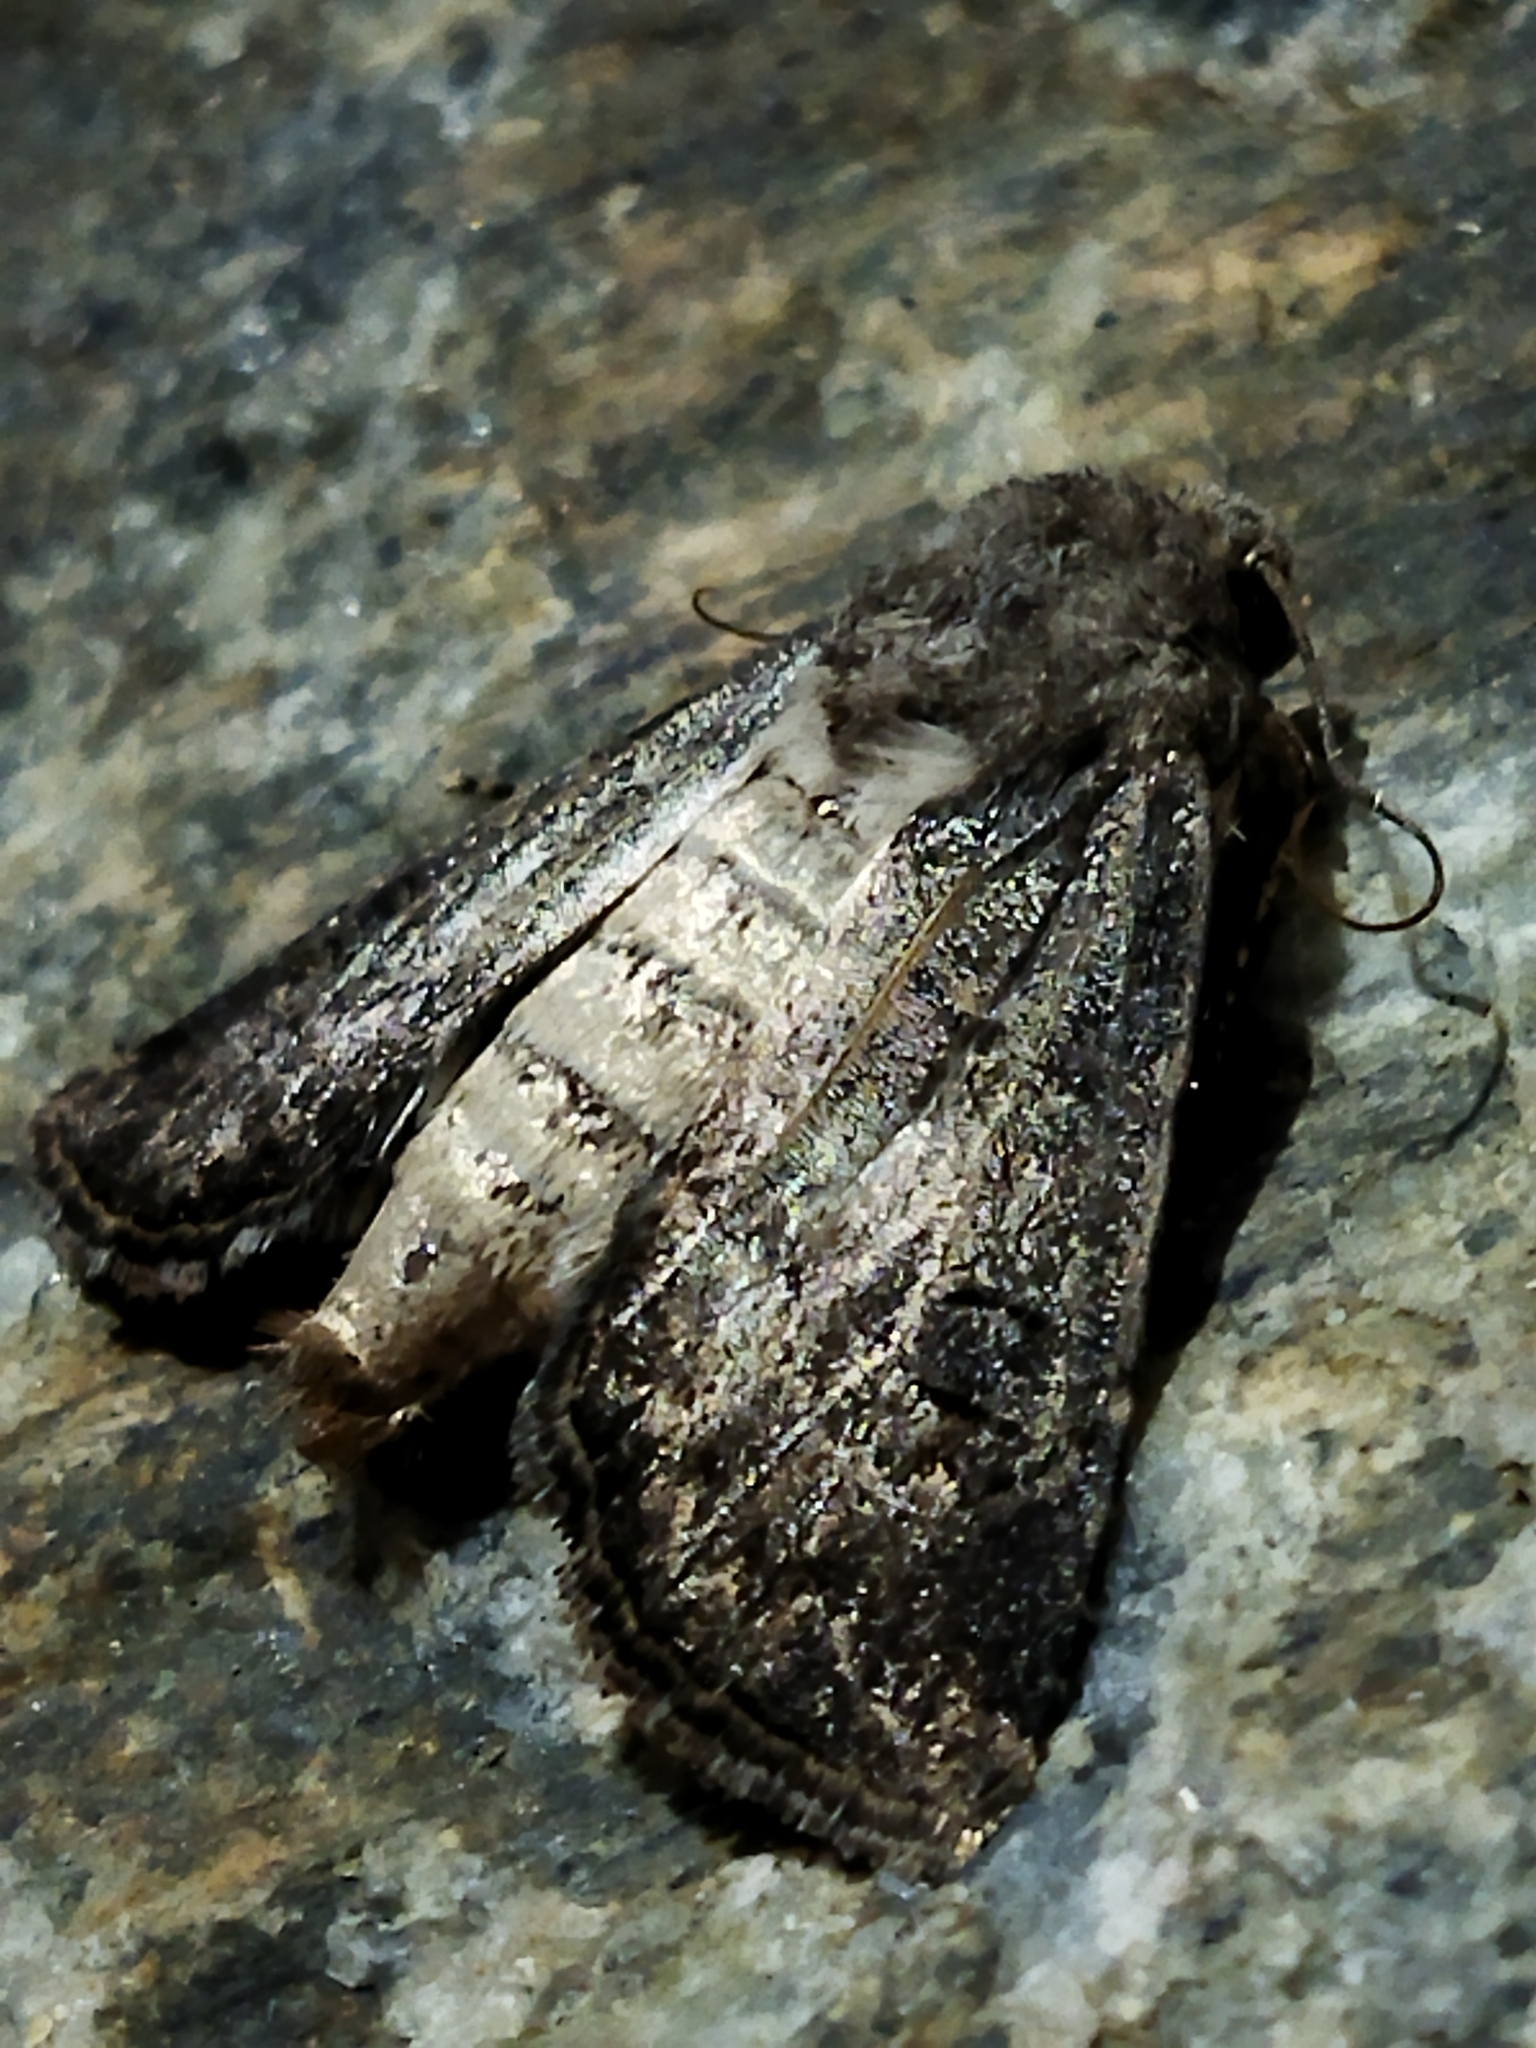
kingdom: Animalia
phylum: Arthropoda
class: Insecta
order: Lepidoptera
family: Noctuidae
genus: Agrotis
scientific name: Agrotis bigramma
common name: Great dart
